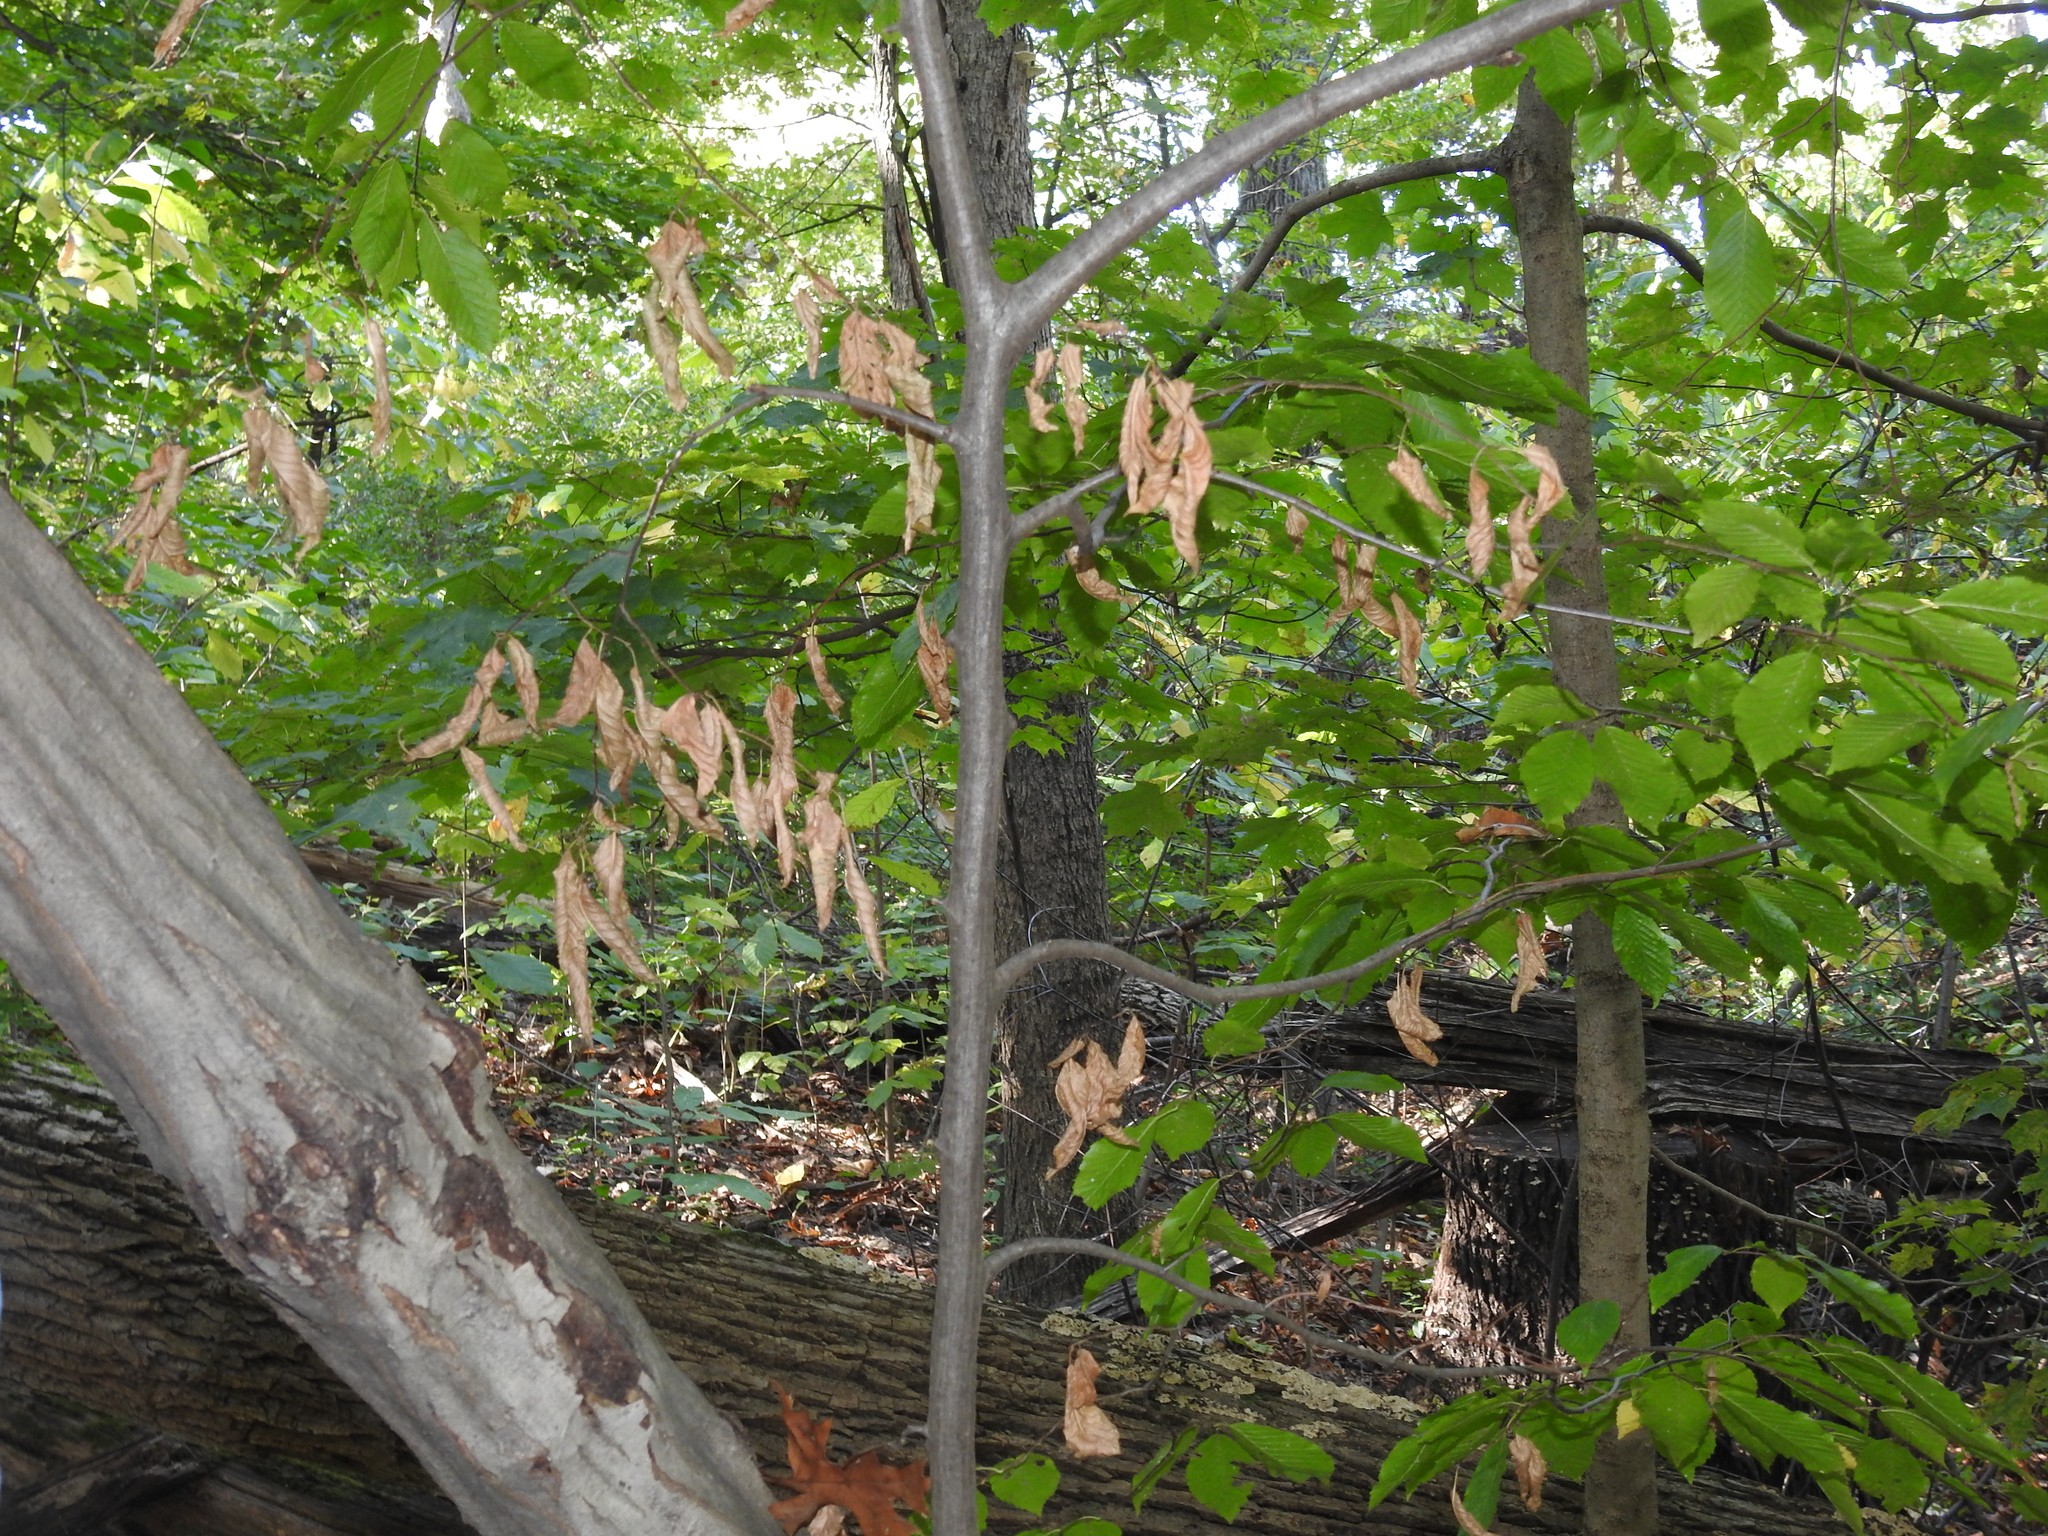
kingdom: Plantae
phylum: Tracheophyta
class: Magnoliopsida
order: Fagales
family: Fagaceae
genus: Fagus
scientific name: Fagus grandifolia
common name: American beech
